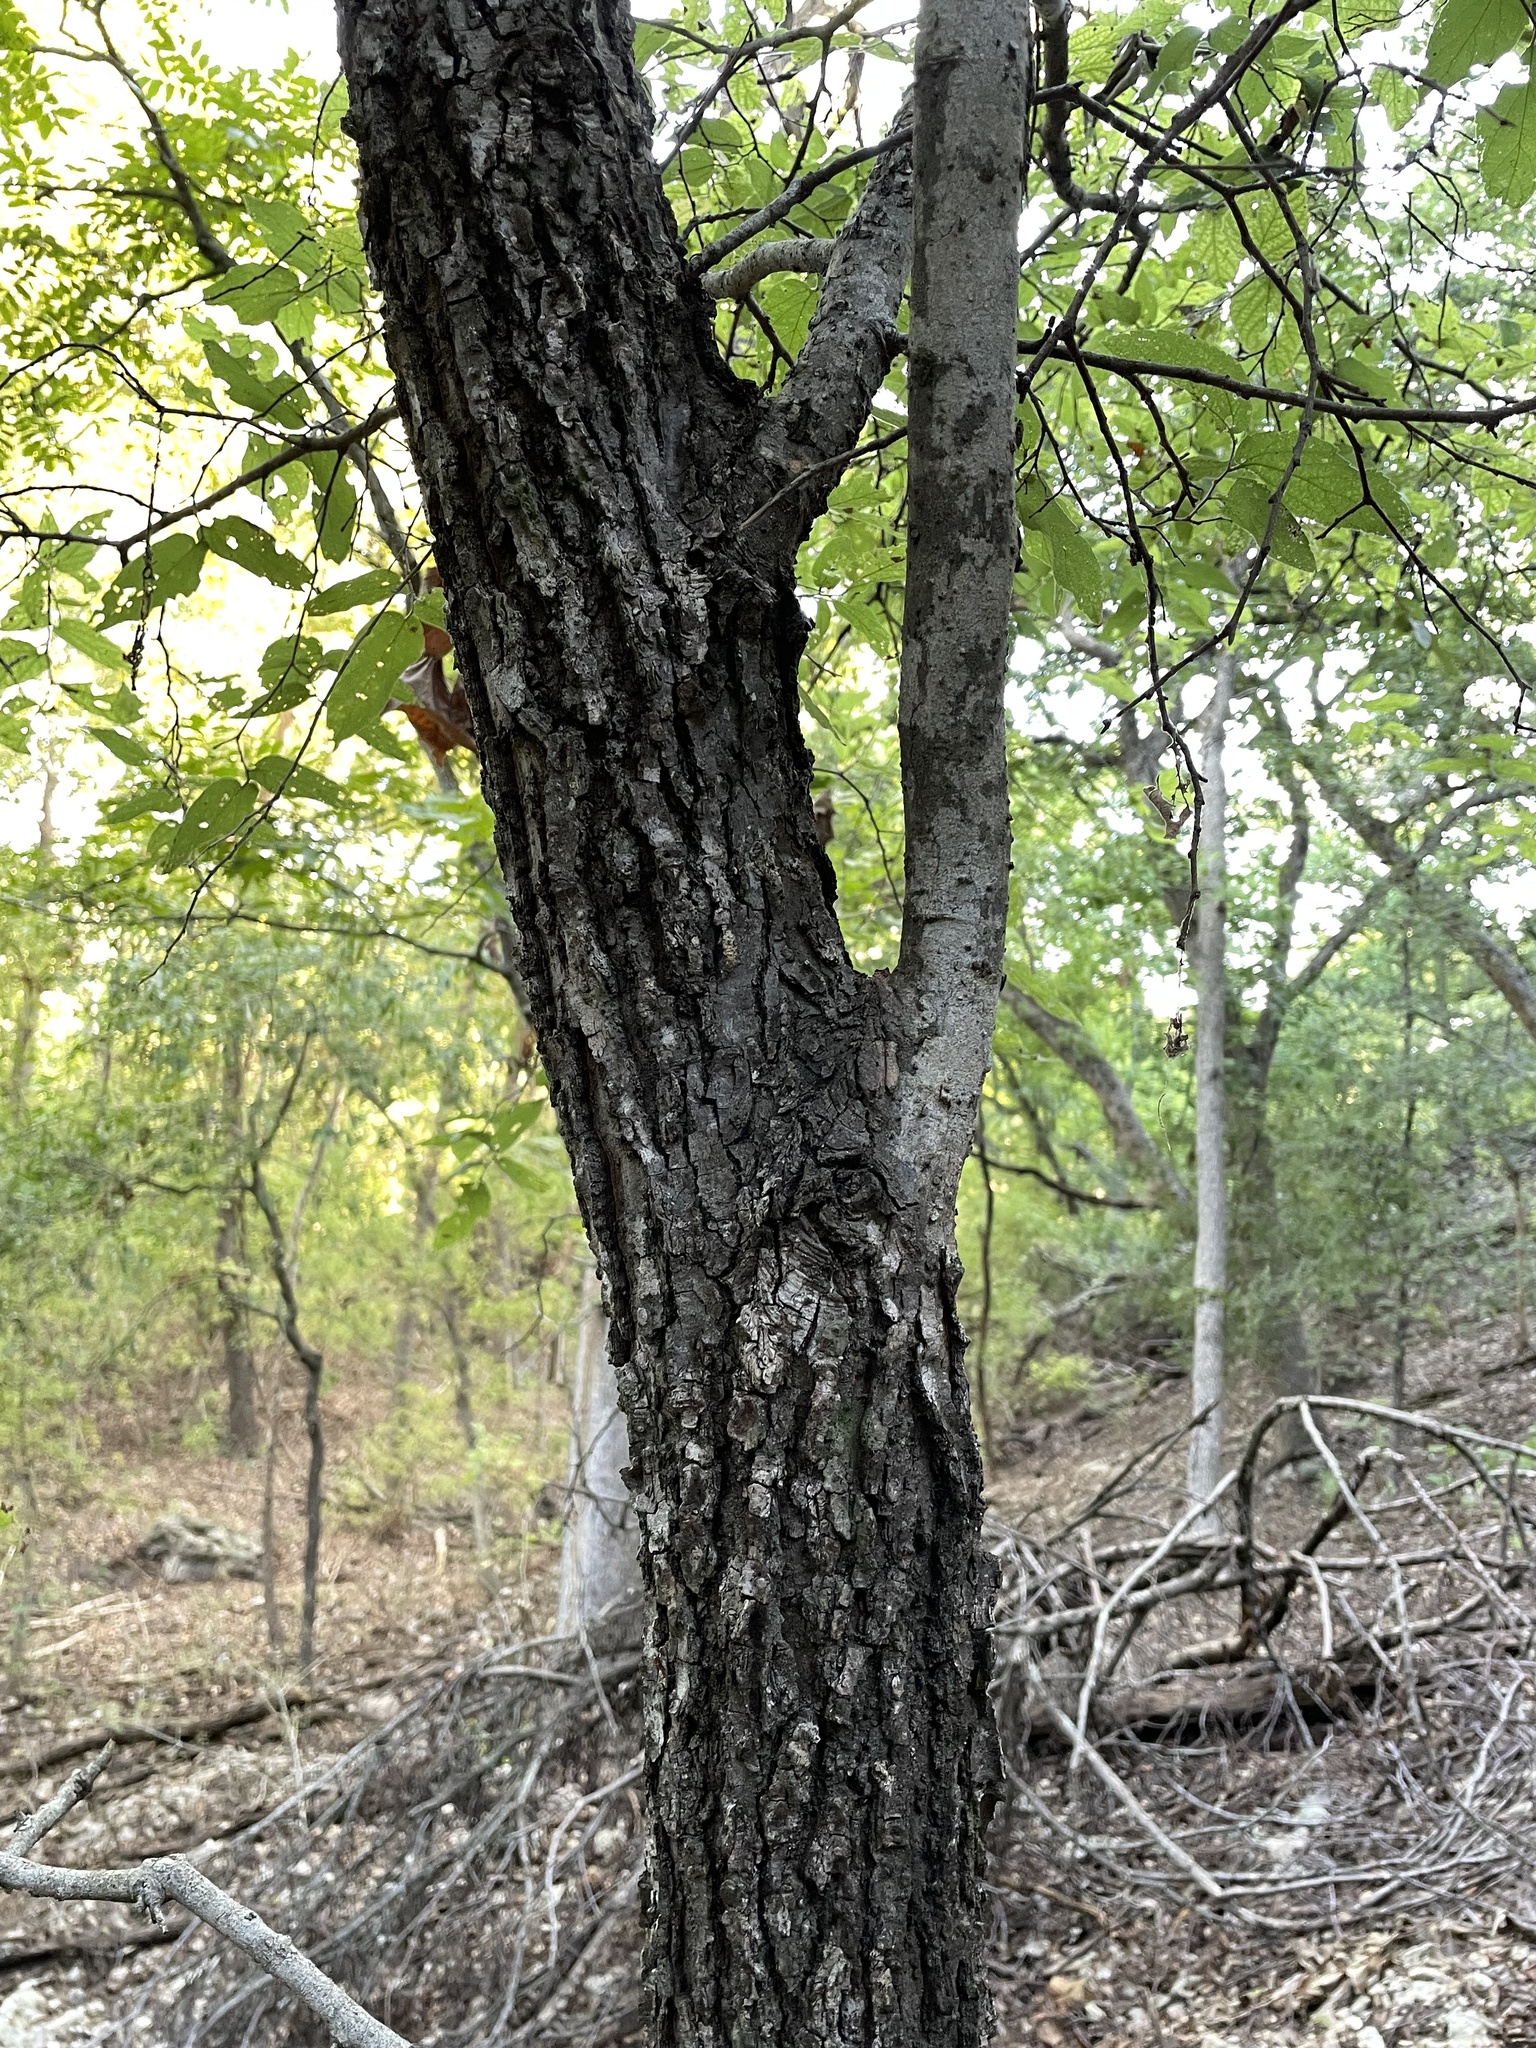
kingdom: Plantae
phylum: Tracheophyta
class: Magnoliopsida
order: Rosales
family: Cannabaceae
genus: Celtis
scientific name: Celtis reticulata
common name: Netleaf hackberry
